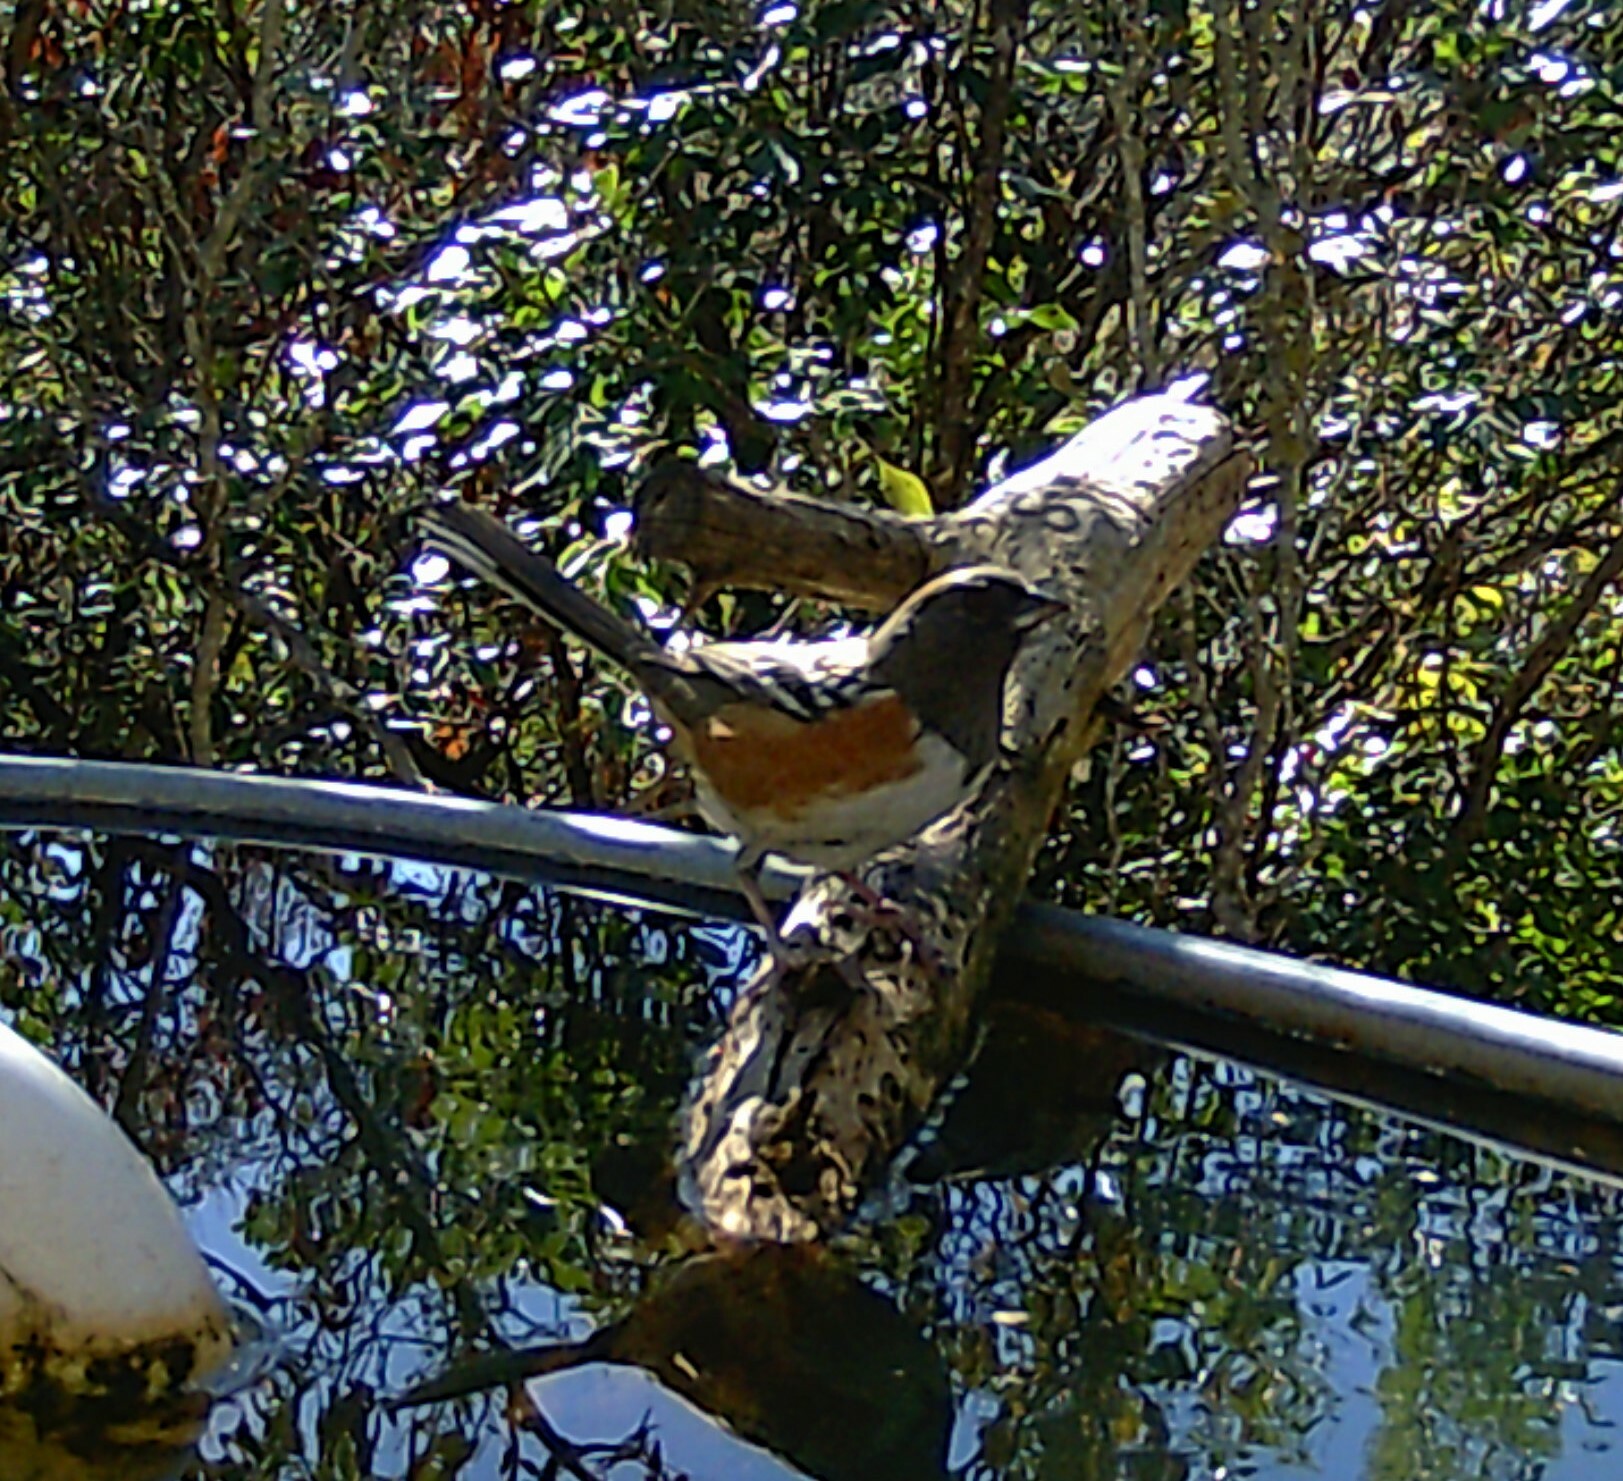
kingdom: Animalia
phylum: Chordata
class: Aves
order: Passeriformes
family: Passerellidae
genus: Pipilo
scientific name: Pipilo maculatus
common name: Spotted towhee
